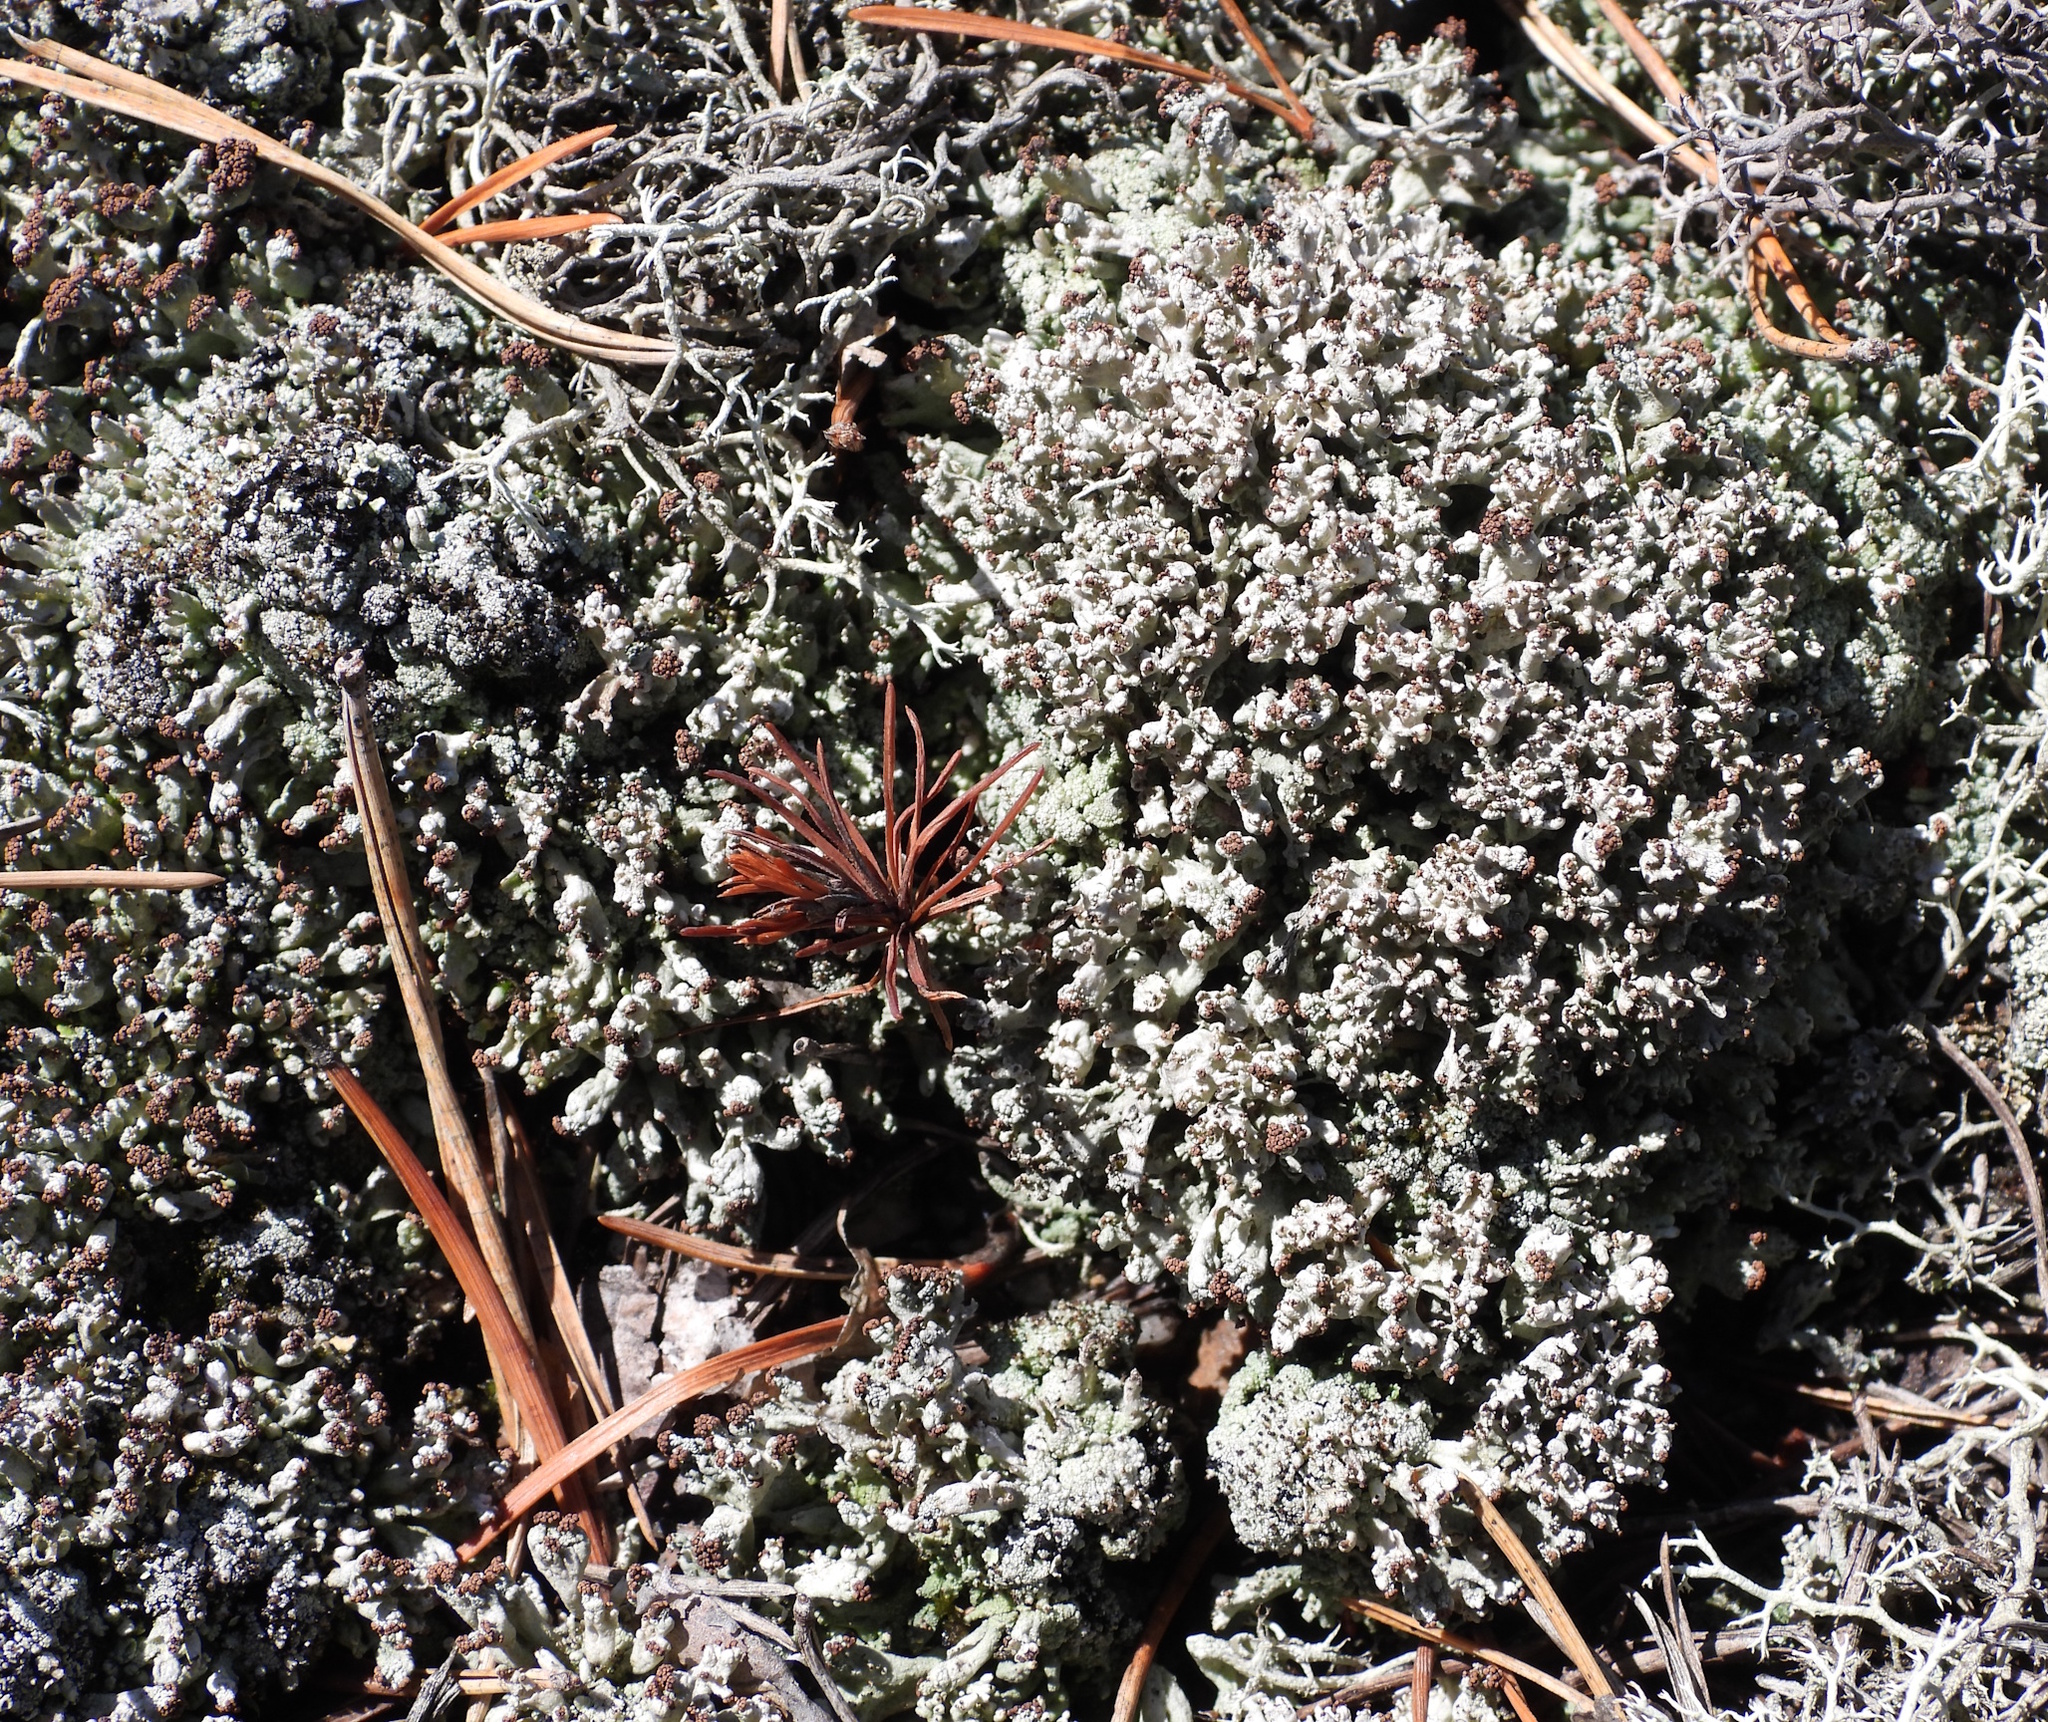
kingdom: Fungi
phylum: Ascomycota
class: Lecanoromycetes
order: Lecanorales
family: Cladoniaceae
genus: Pycnothelia
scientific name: Pycnothelia papillaria
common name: Nipple lichen
